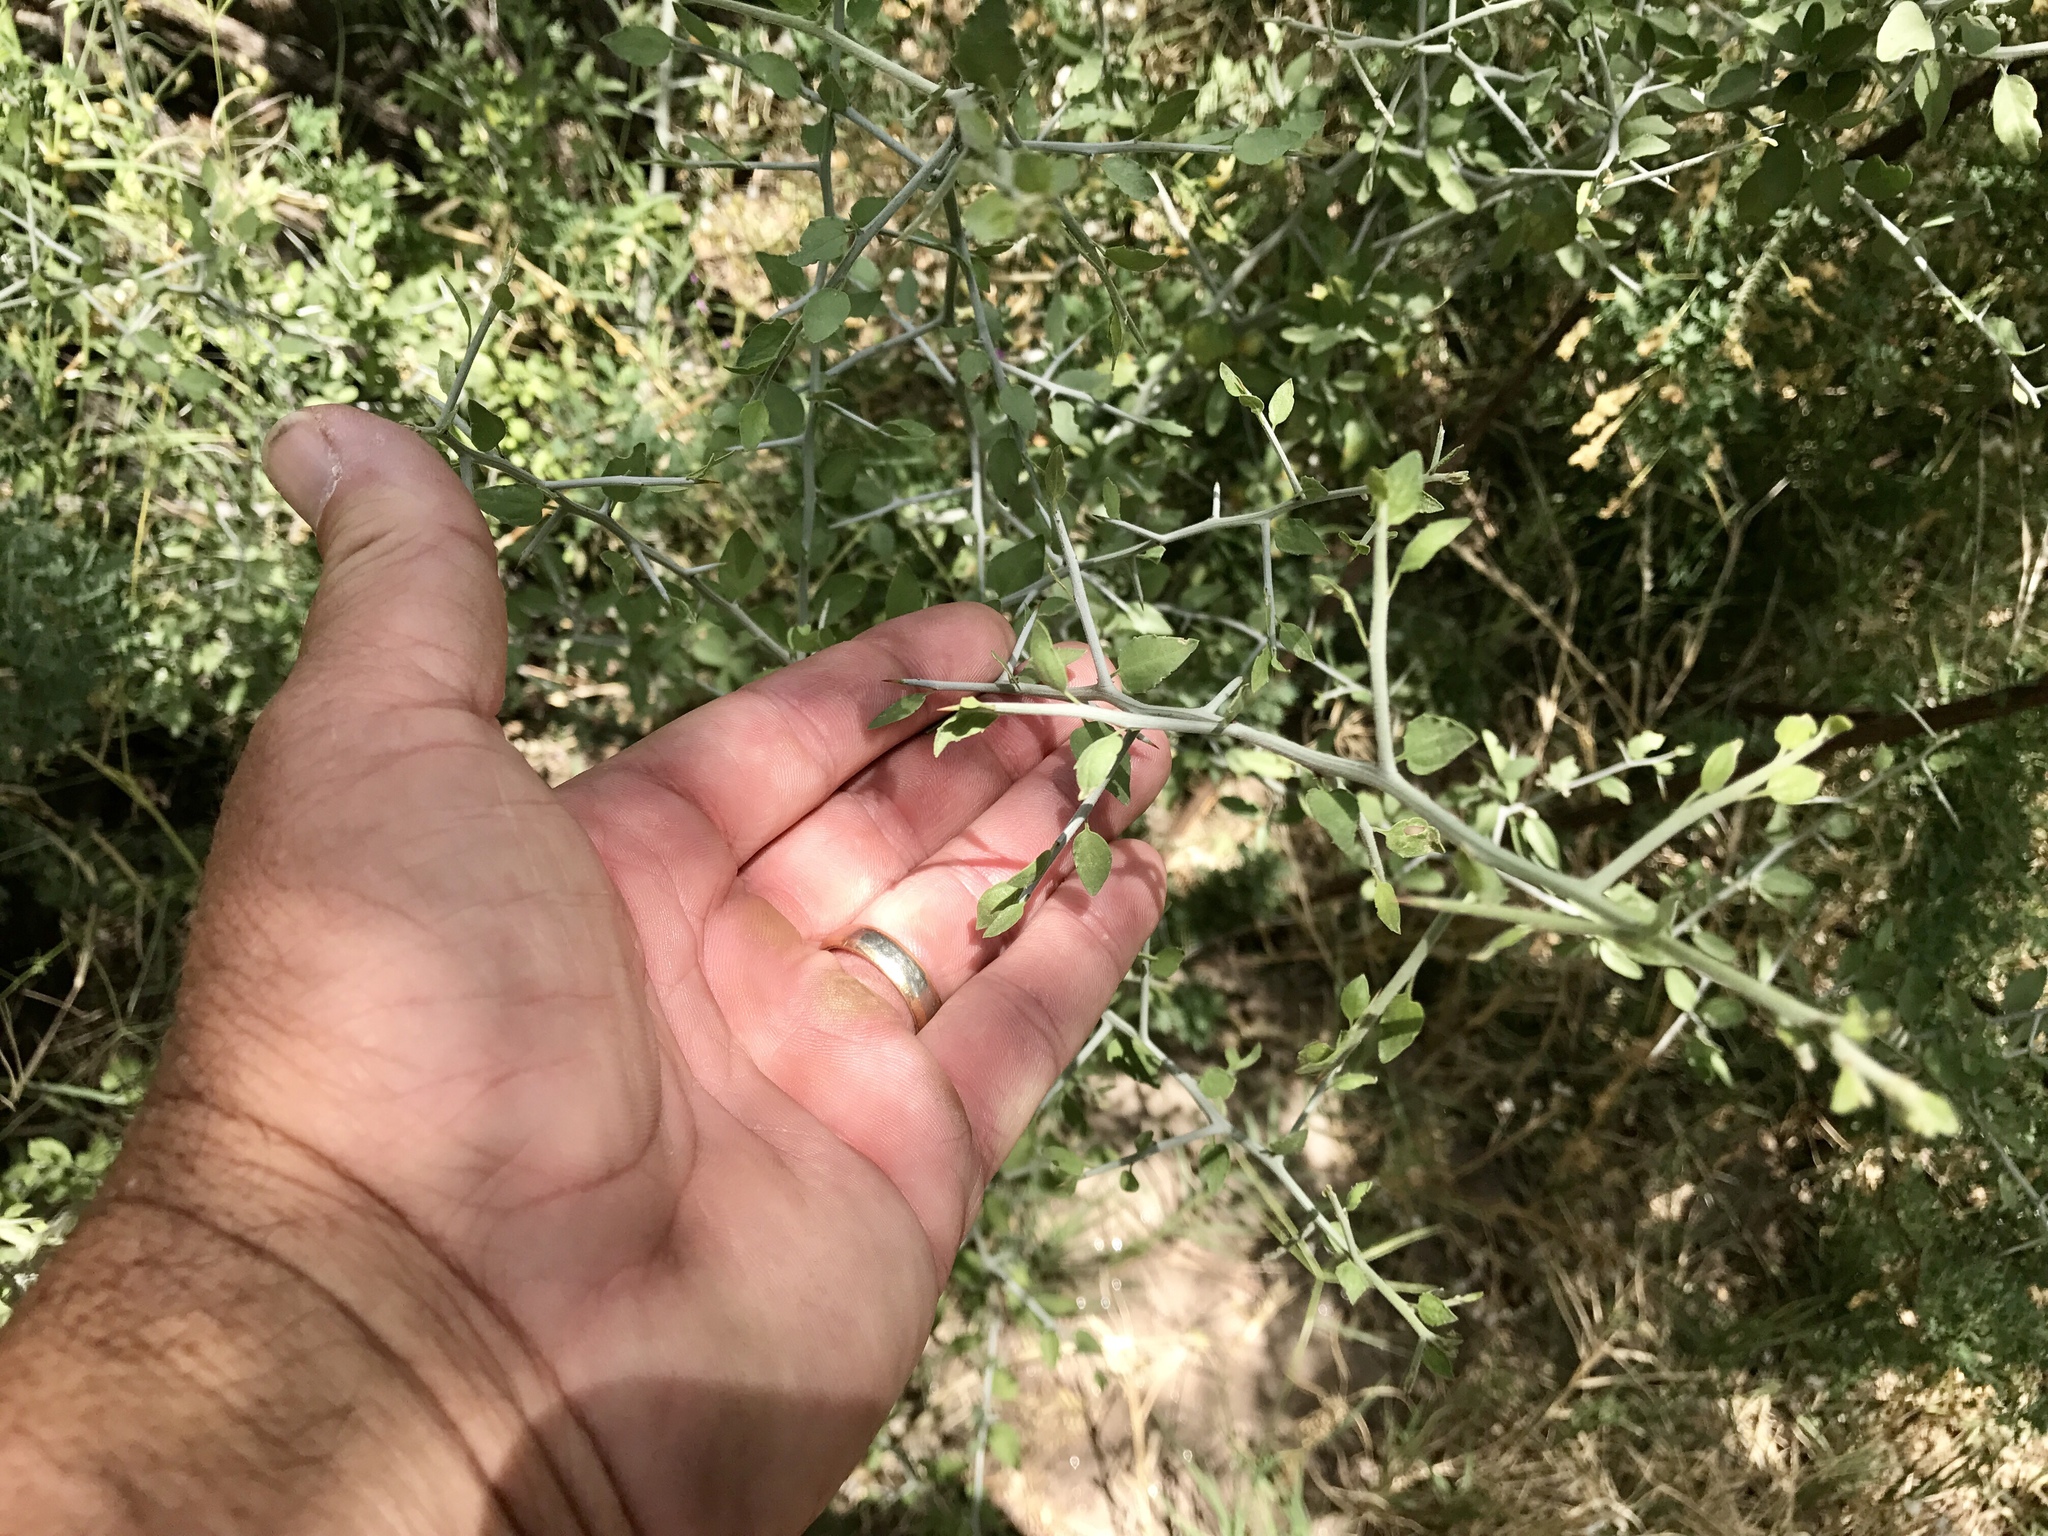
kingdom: Plantae
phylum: Tracheophyta
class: Magnoliopsida
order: Rosales
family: Rhamnaceae
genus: Sarcomphalus
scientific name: Sarcomphalus obtusifolius
